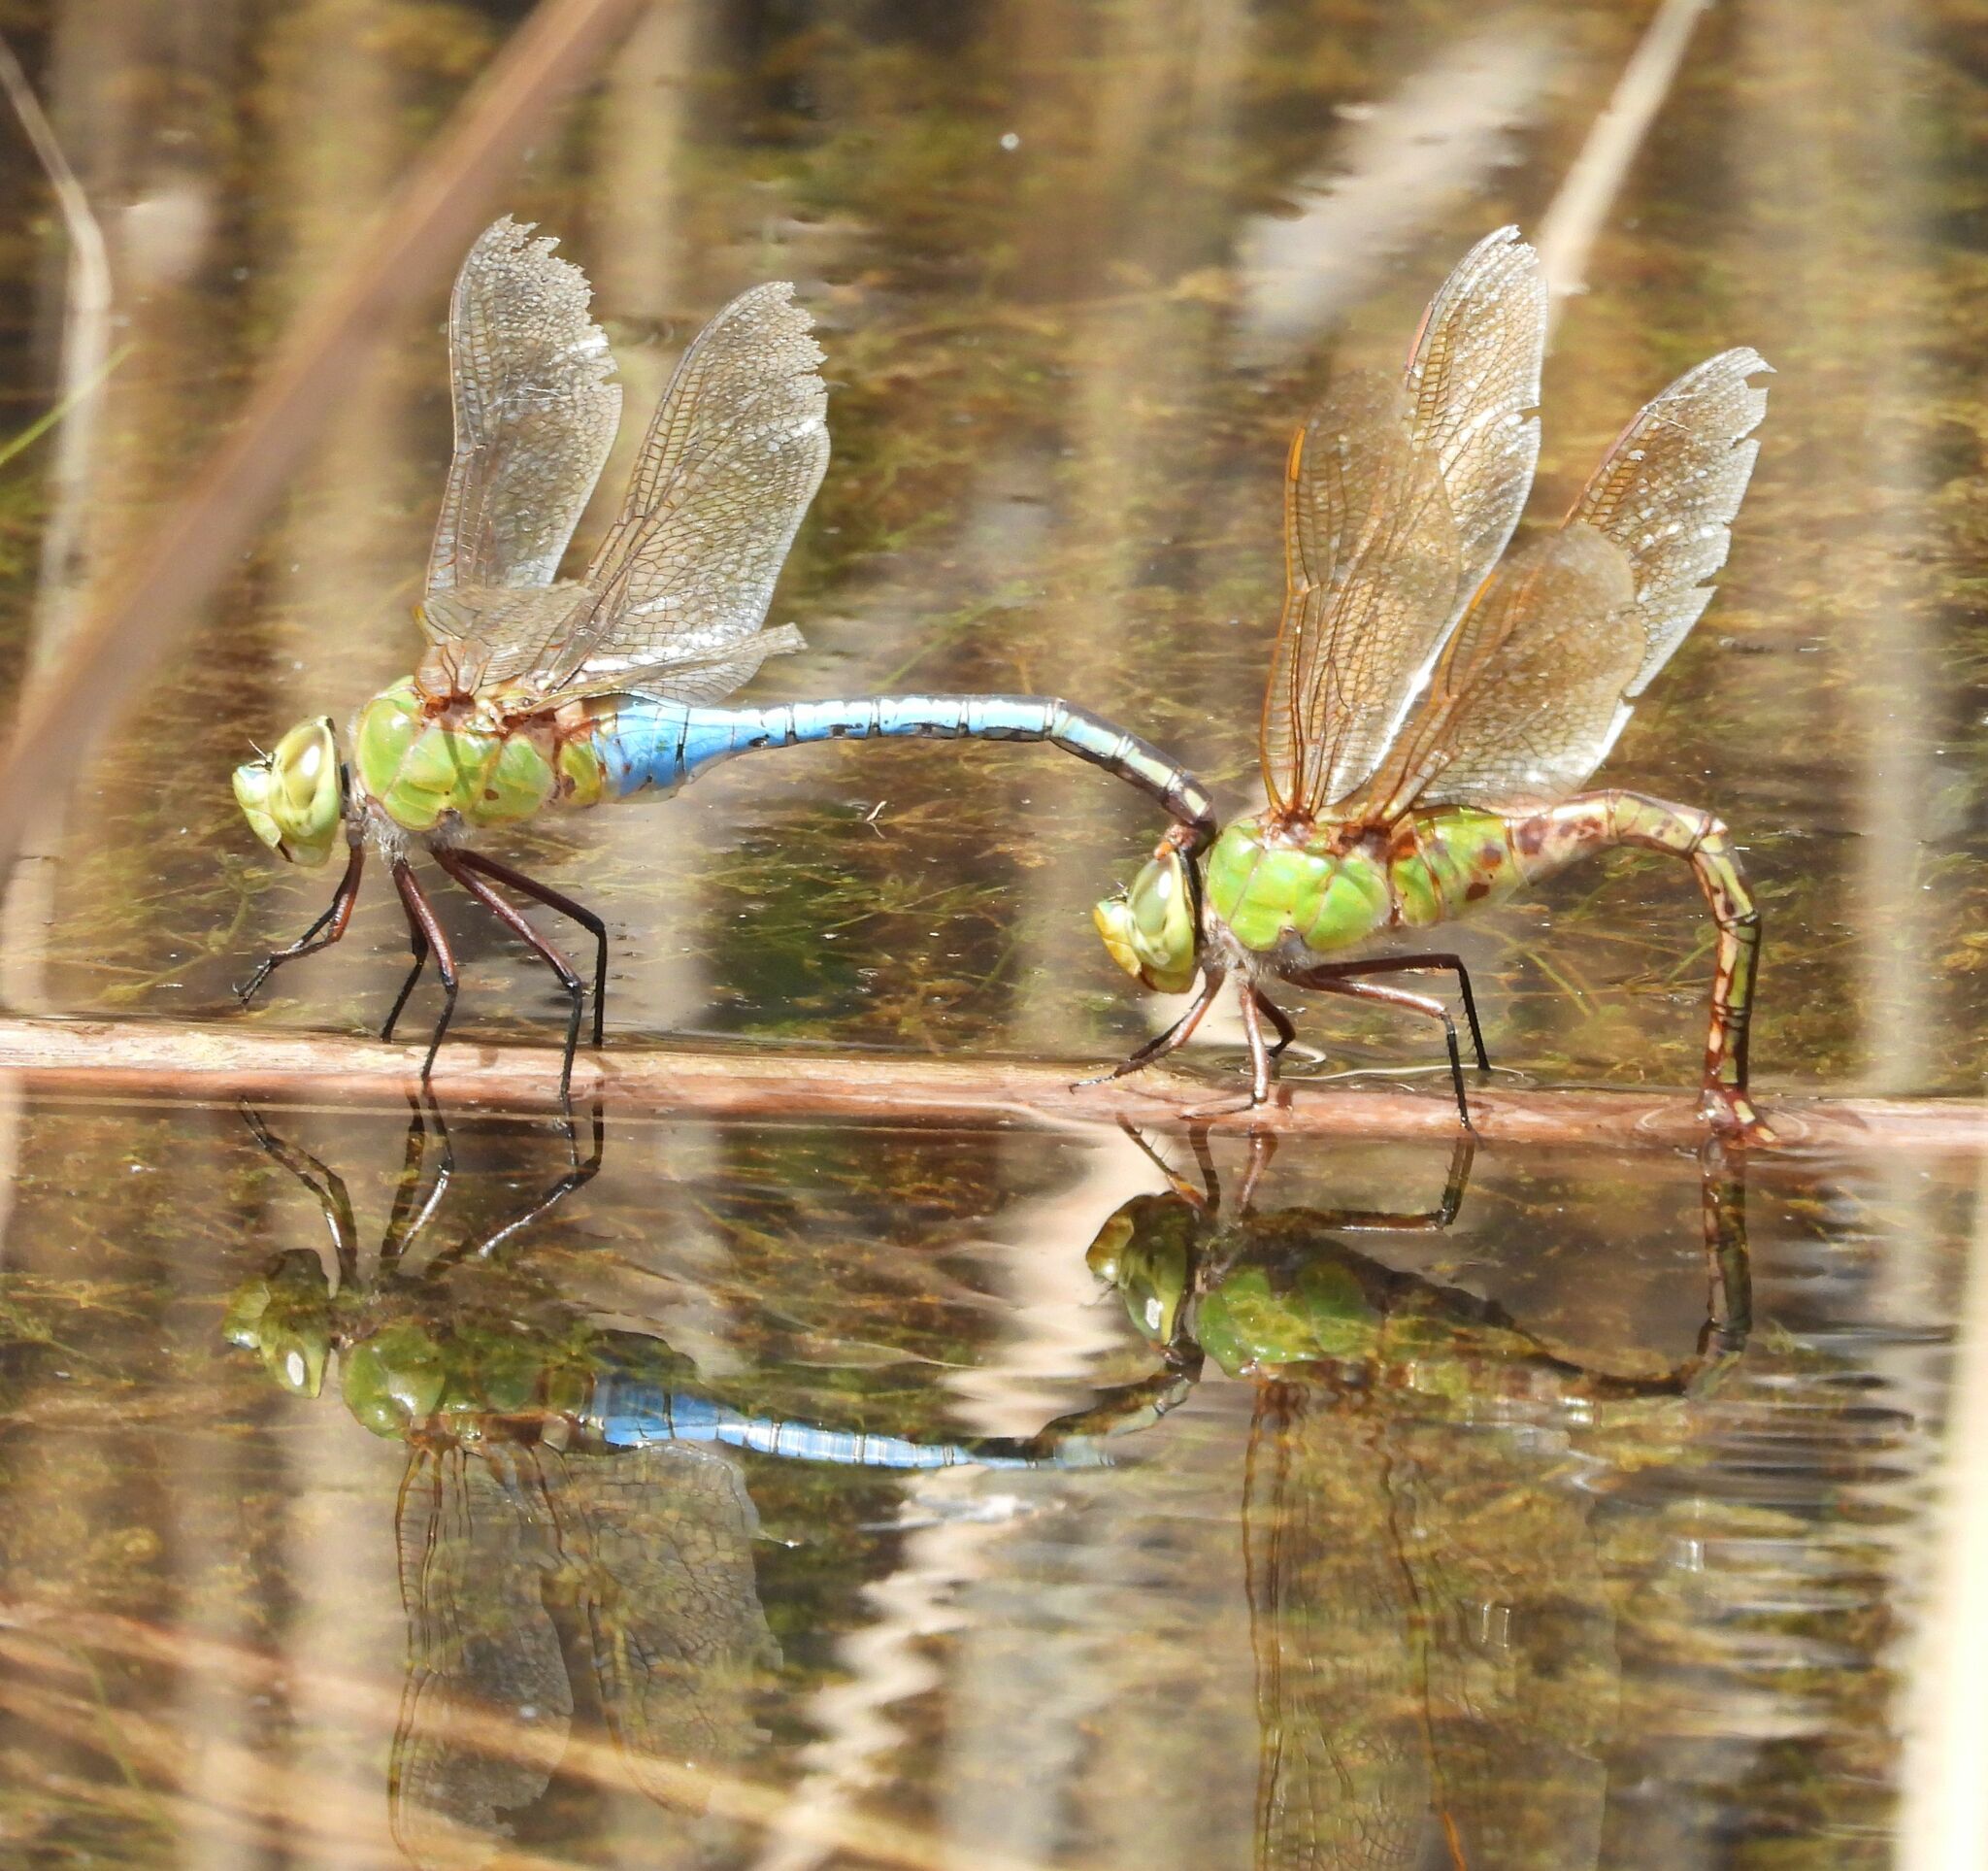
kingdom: Animalia
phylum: Arthropoda
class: Insecta
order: Odonata
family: Aeshnidae
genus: Anax
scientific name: Anax junius
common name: Common green darner
